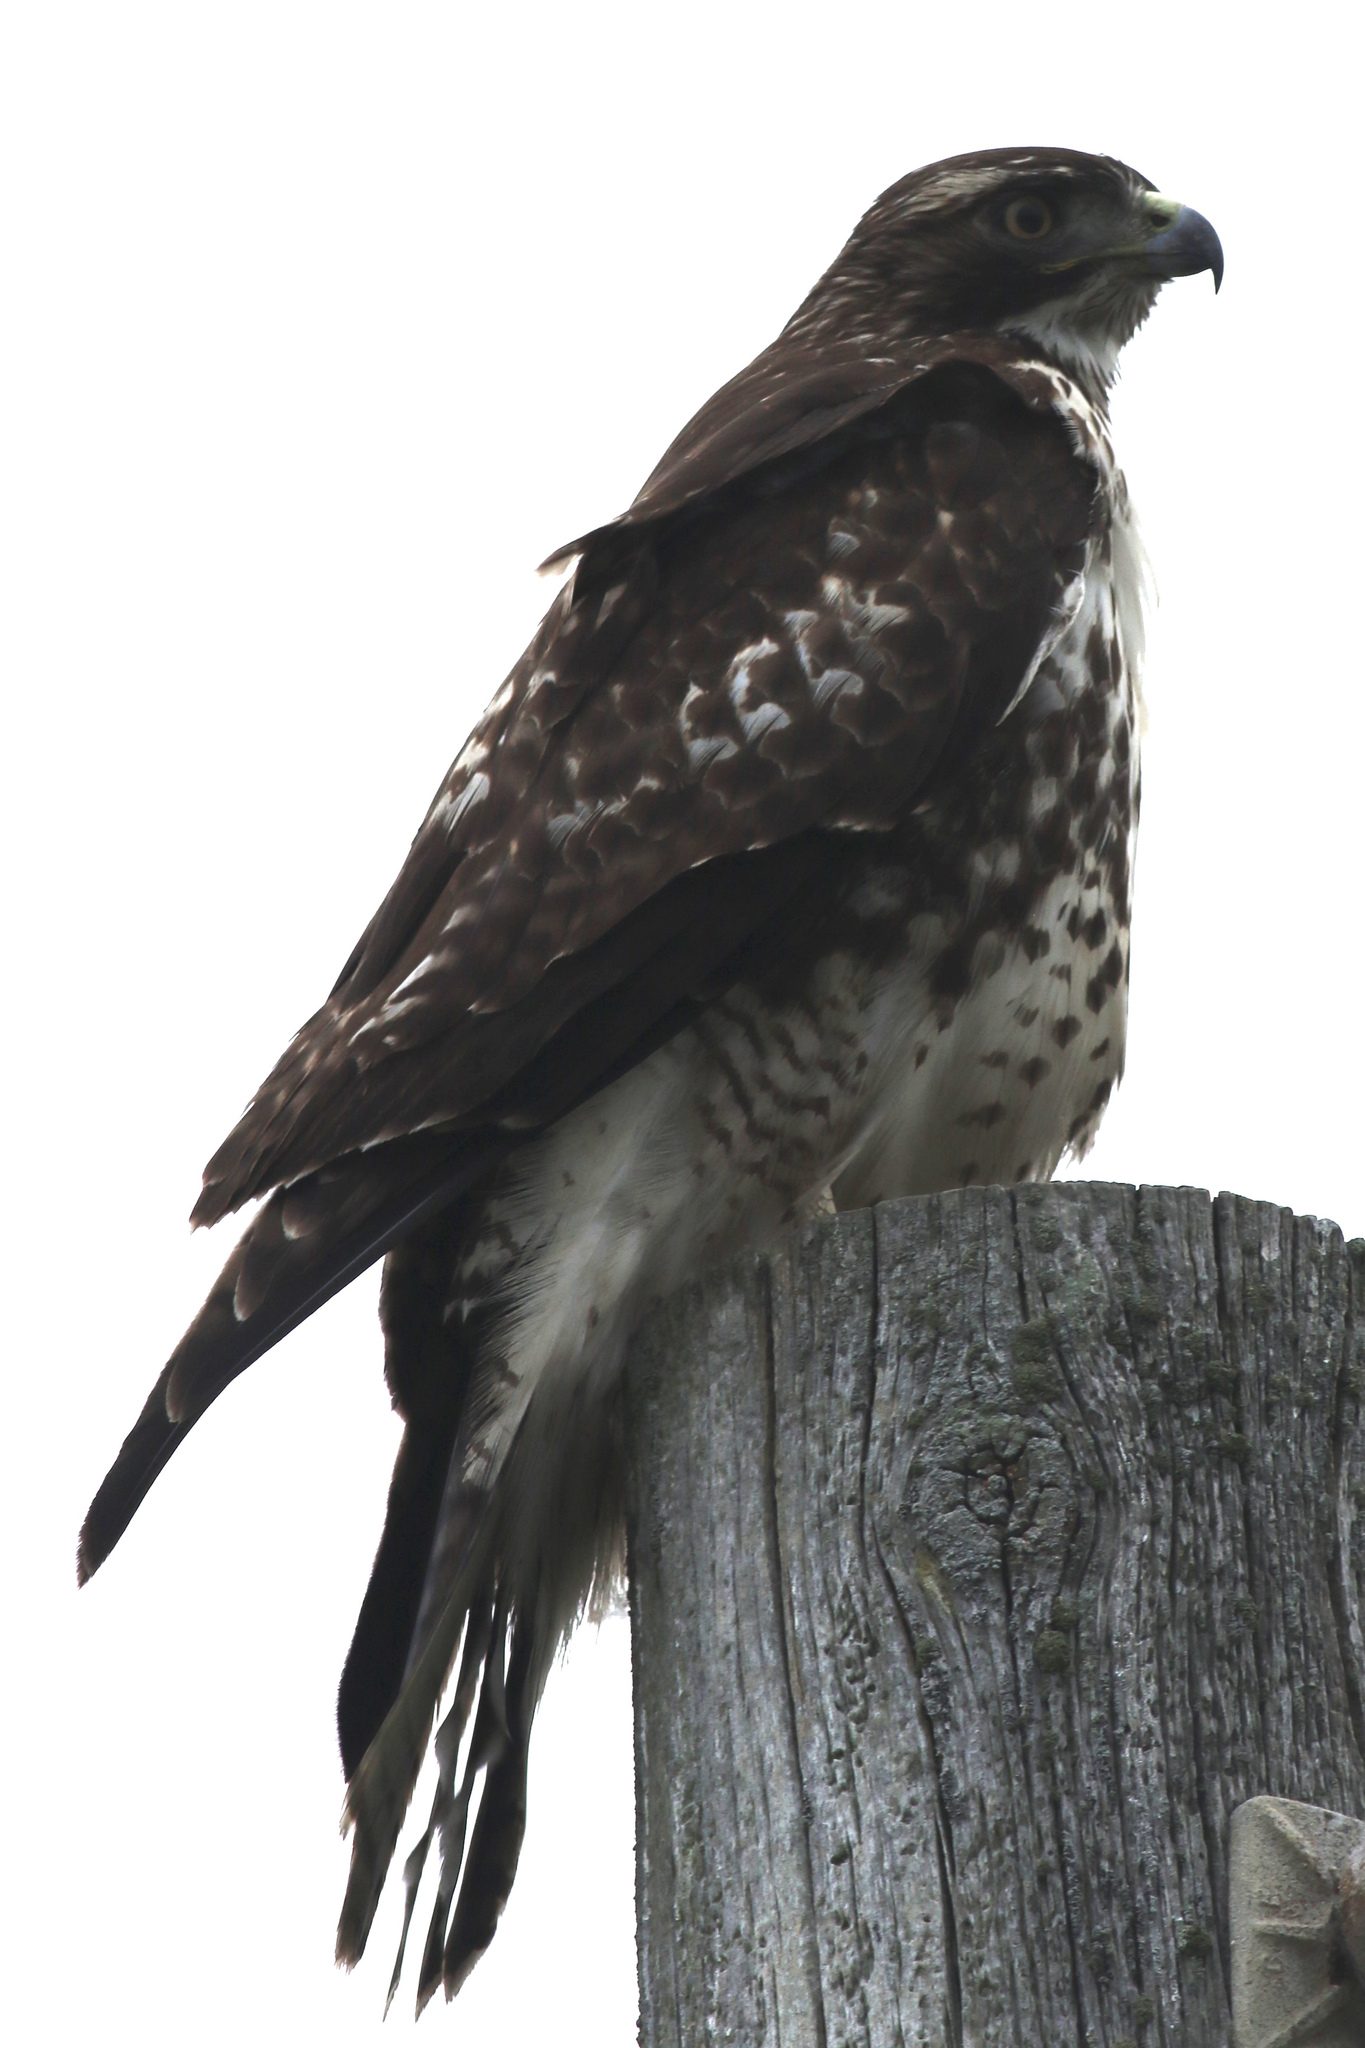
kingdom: Animalia
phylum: Chordata
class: Aves
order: Accipitriformes
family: Accipitridae
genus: Buteo
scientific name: Buteo jamaicensis
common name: Red-tailed hawk
